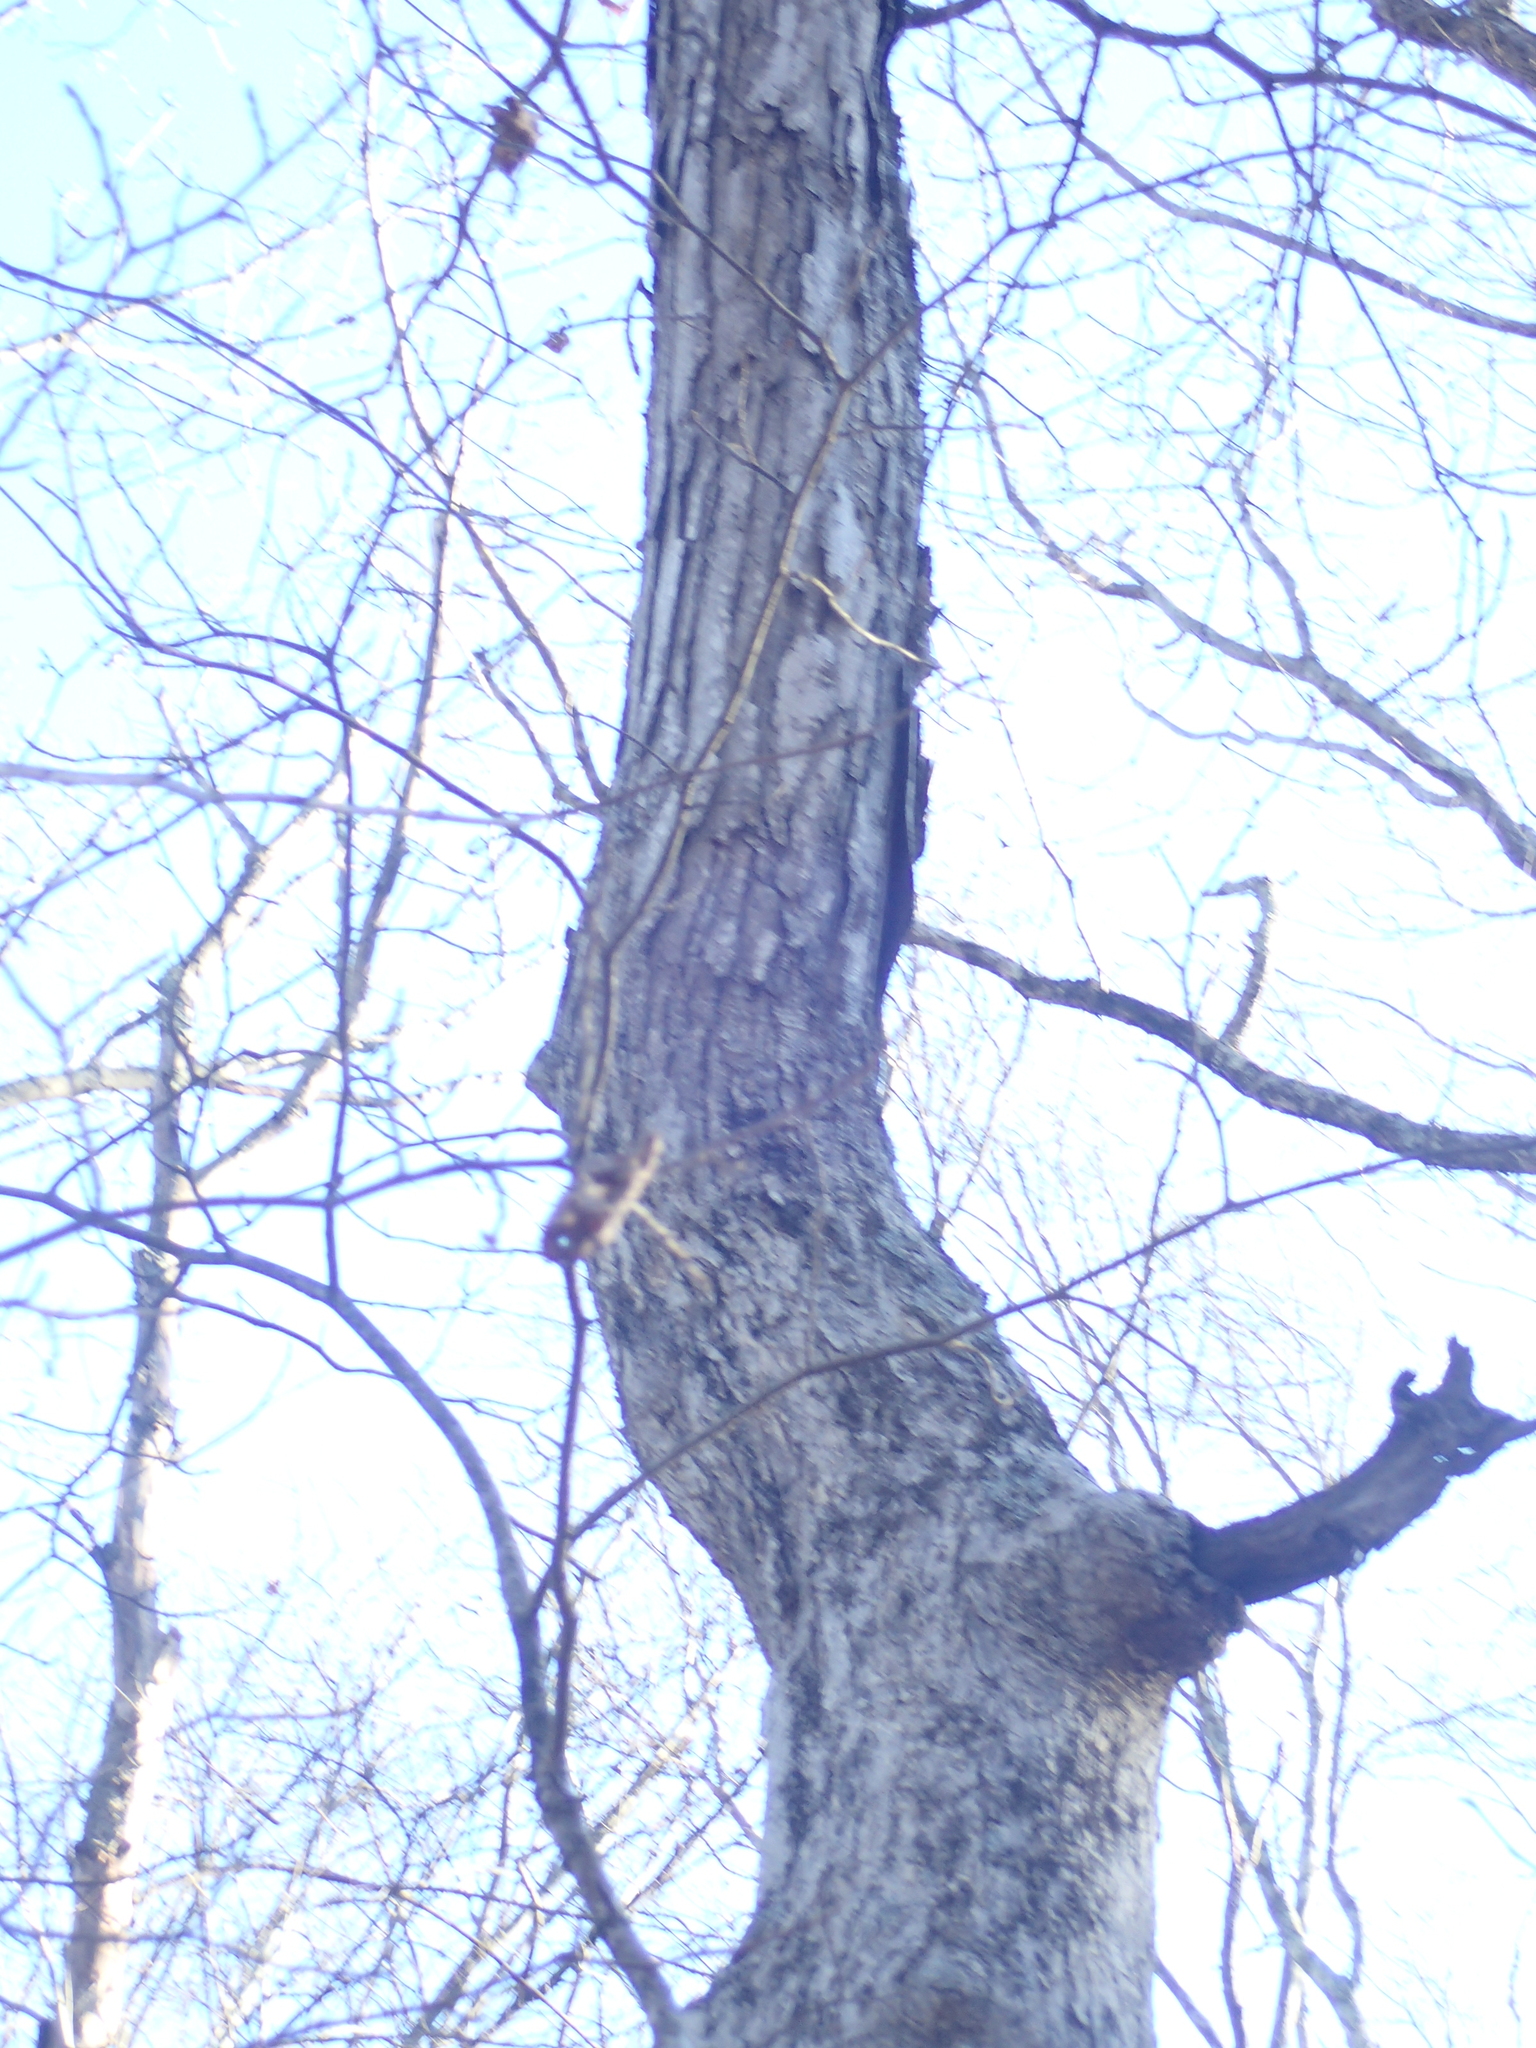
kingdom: Plantae
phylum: Tracheophyta
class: Magnoliopsida
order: Fagales
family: Fagaceae
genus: Quercus
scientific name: Quercus alba
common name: White oak
